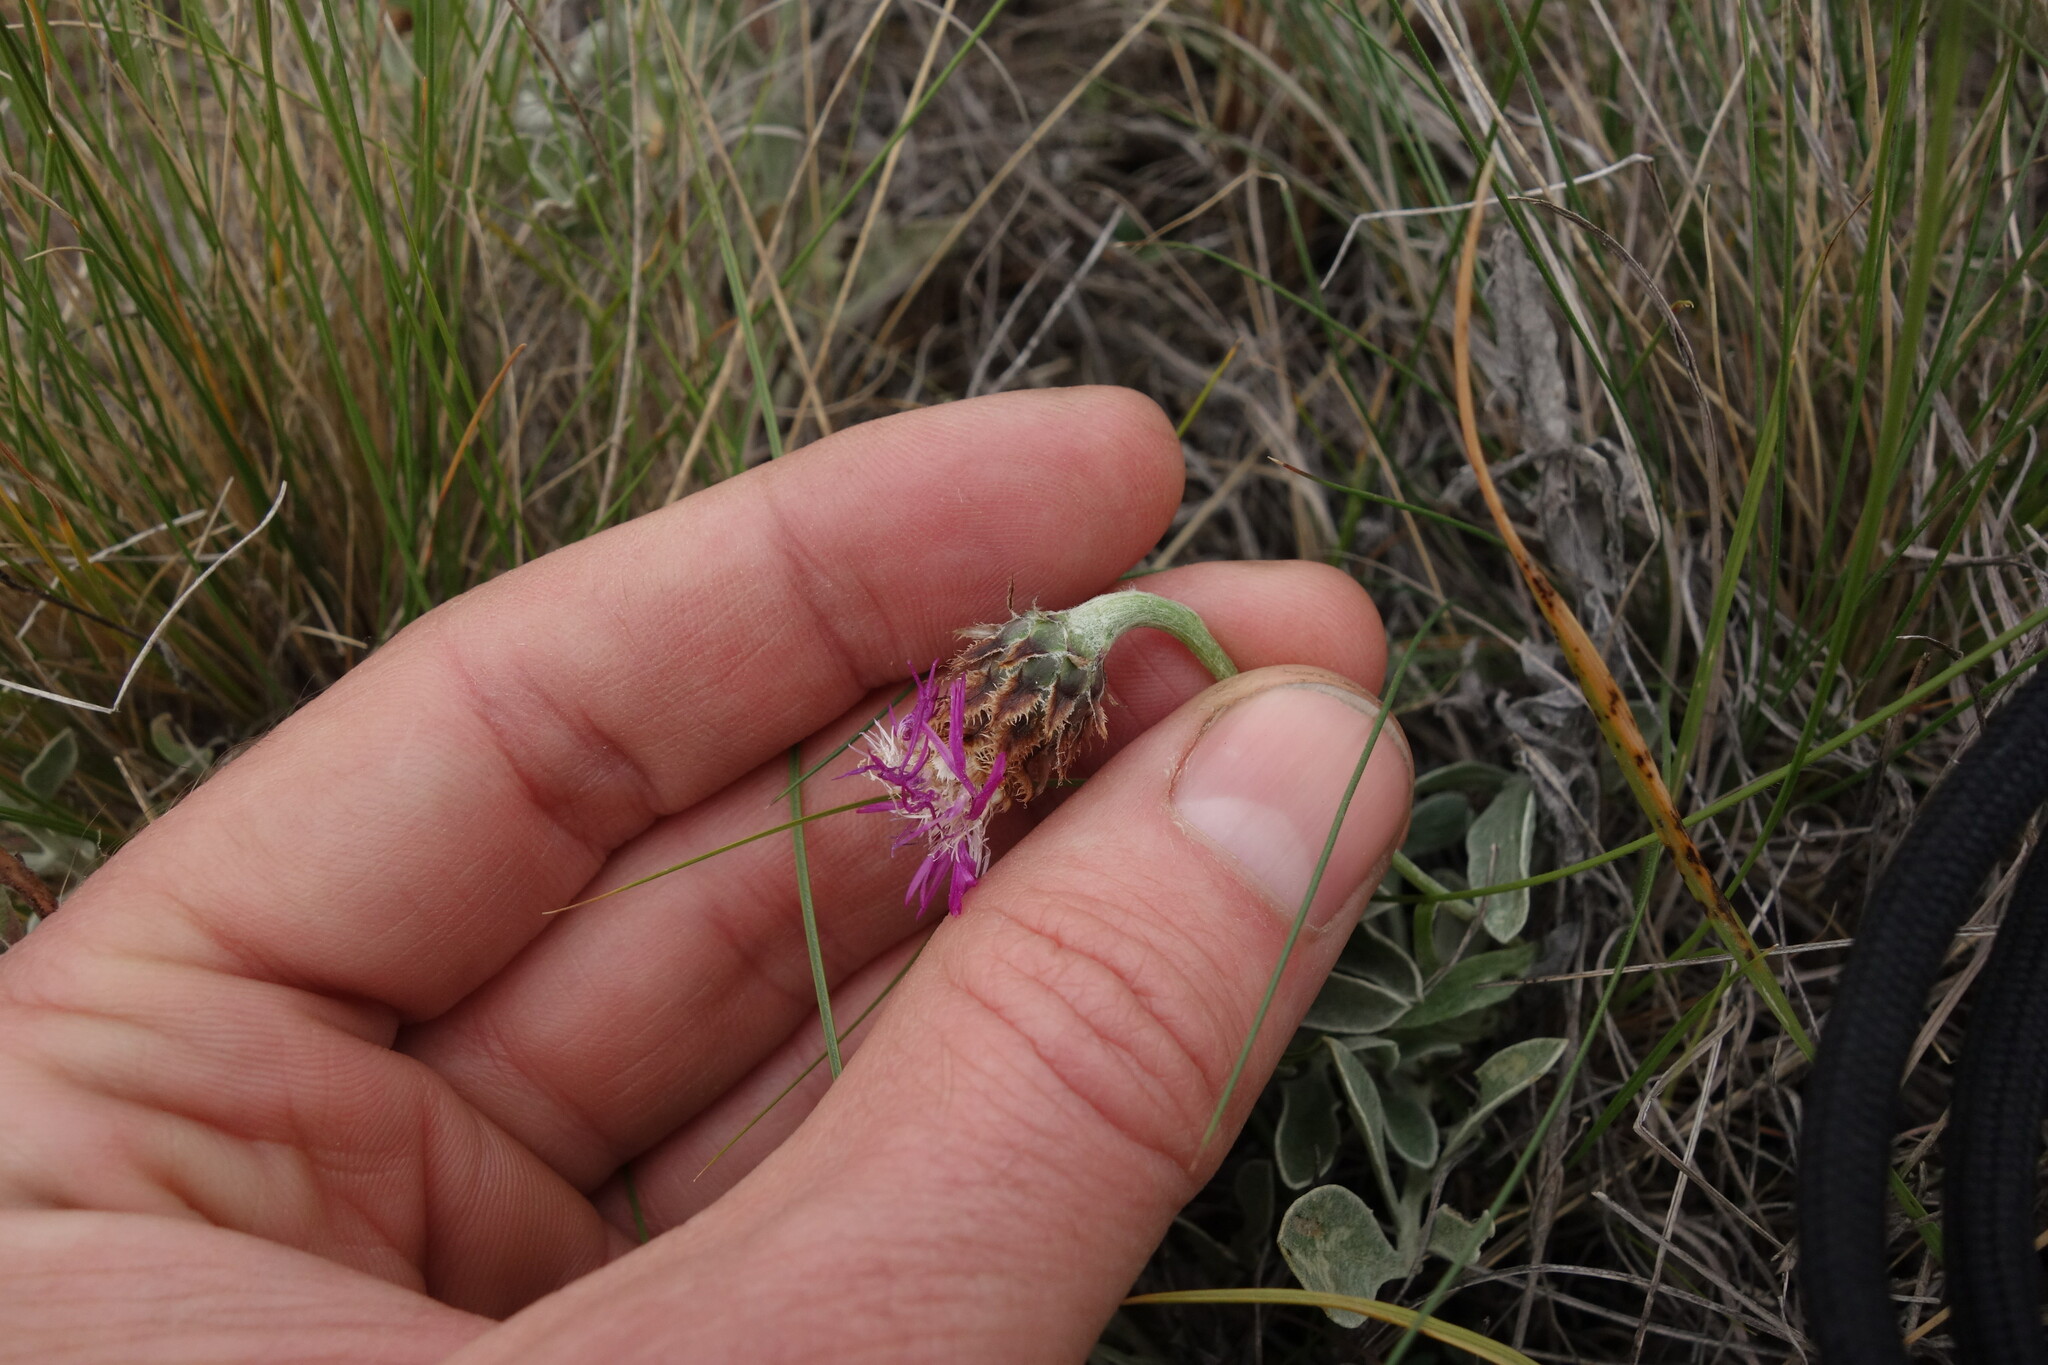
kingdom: Plantae
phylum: Tracheophyta
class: Magnoliopsida
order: Asterales
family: Asteraceae
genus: Psephellus
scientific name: Psephellus marschallianus
